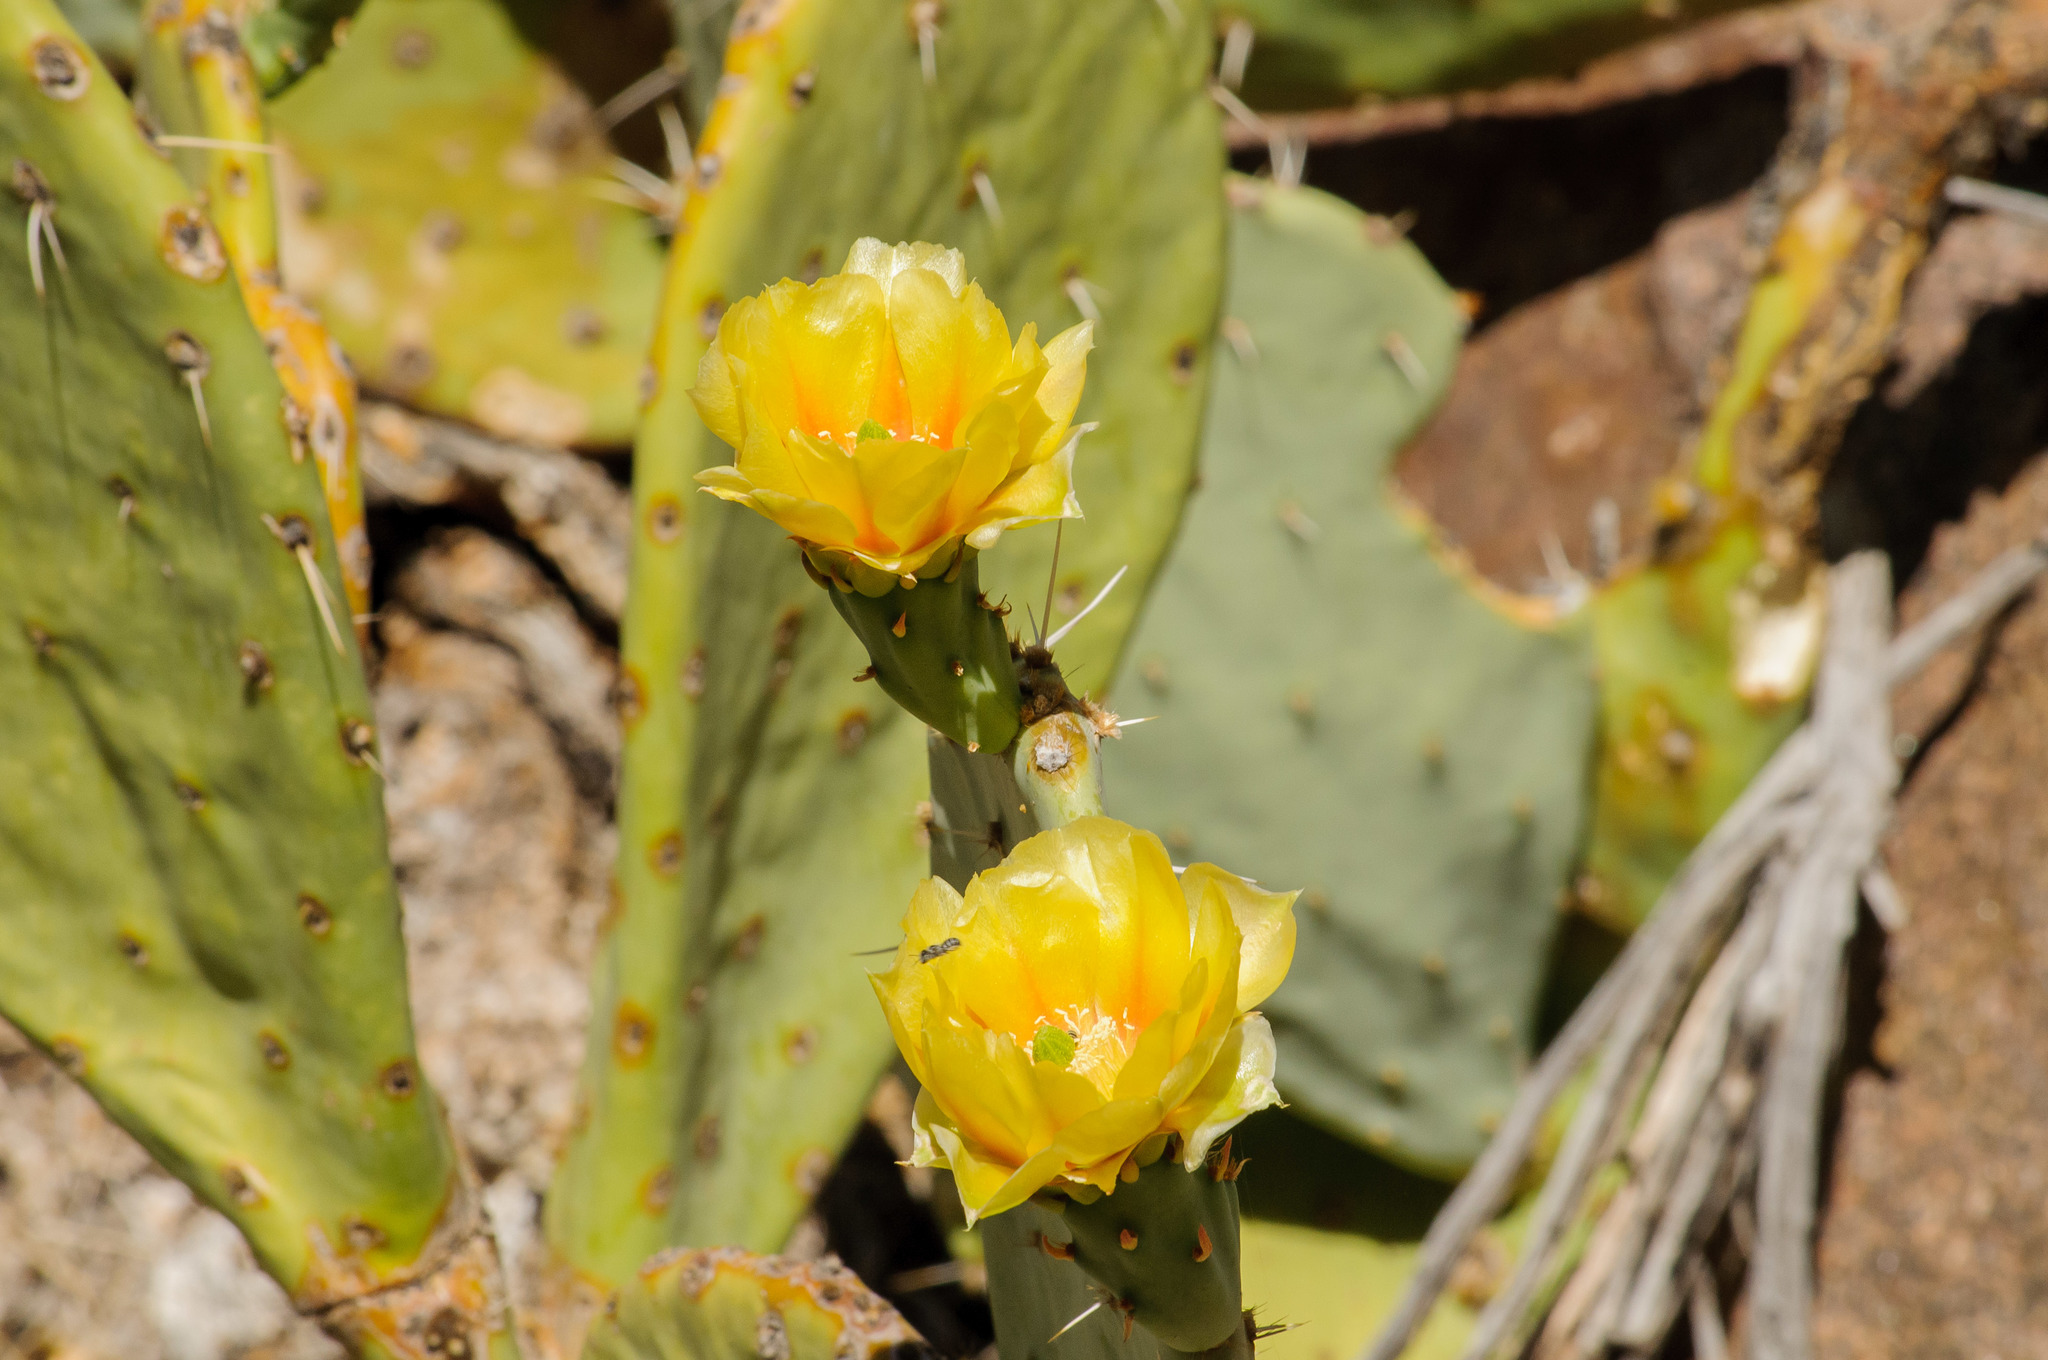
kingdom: Plantae
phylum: Tracheophyta
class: Magnoliopsida
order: Caryophyllales
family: Cactaceae
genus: Opuntia
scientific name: Opuntia phaeacantha
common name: New mexico prickly-pear
